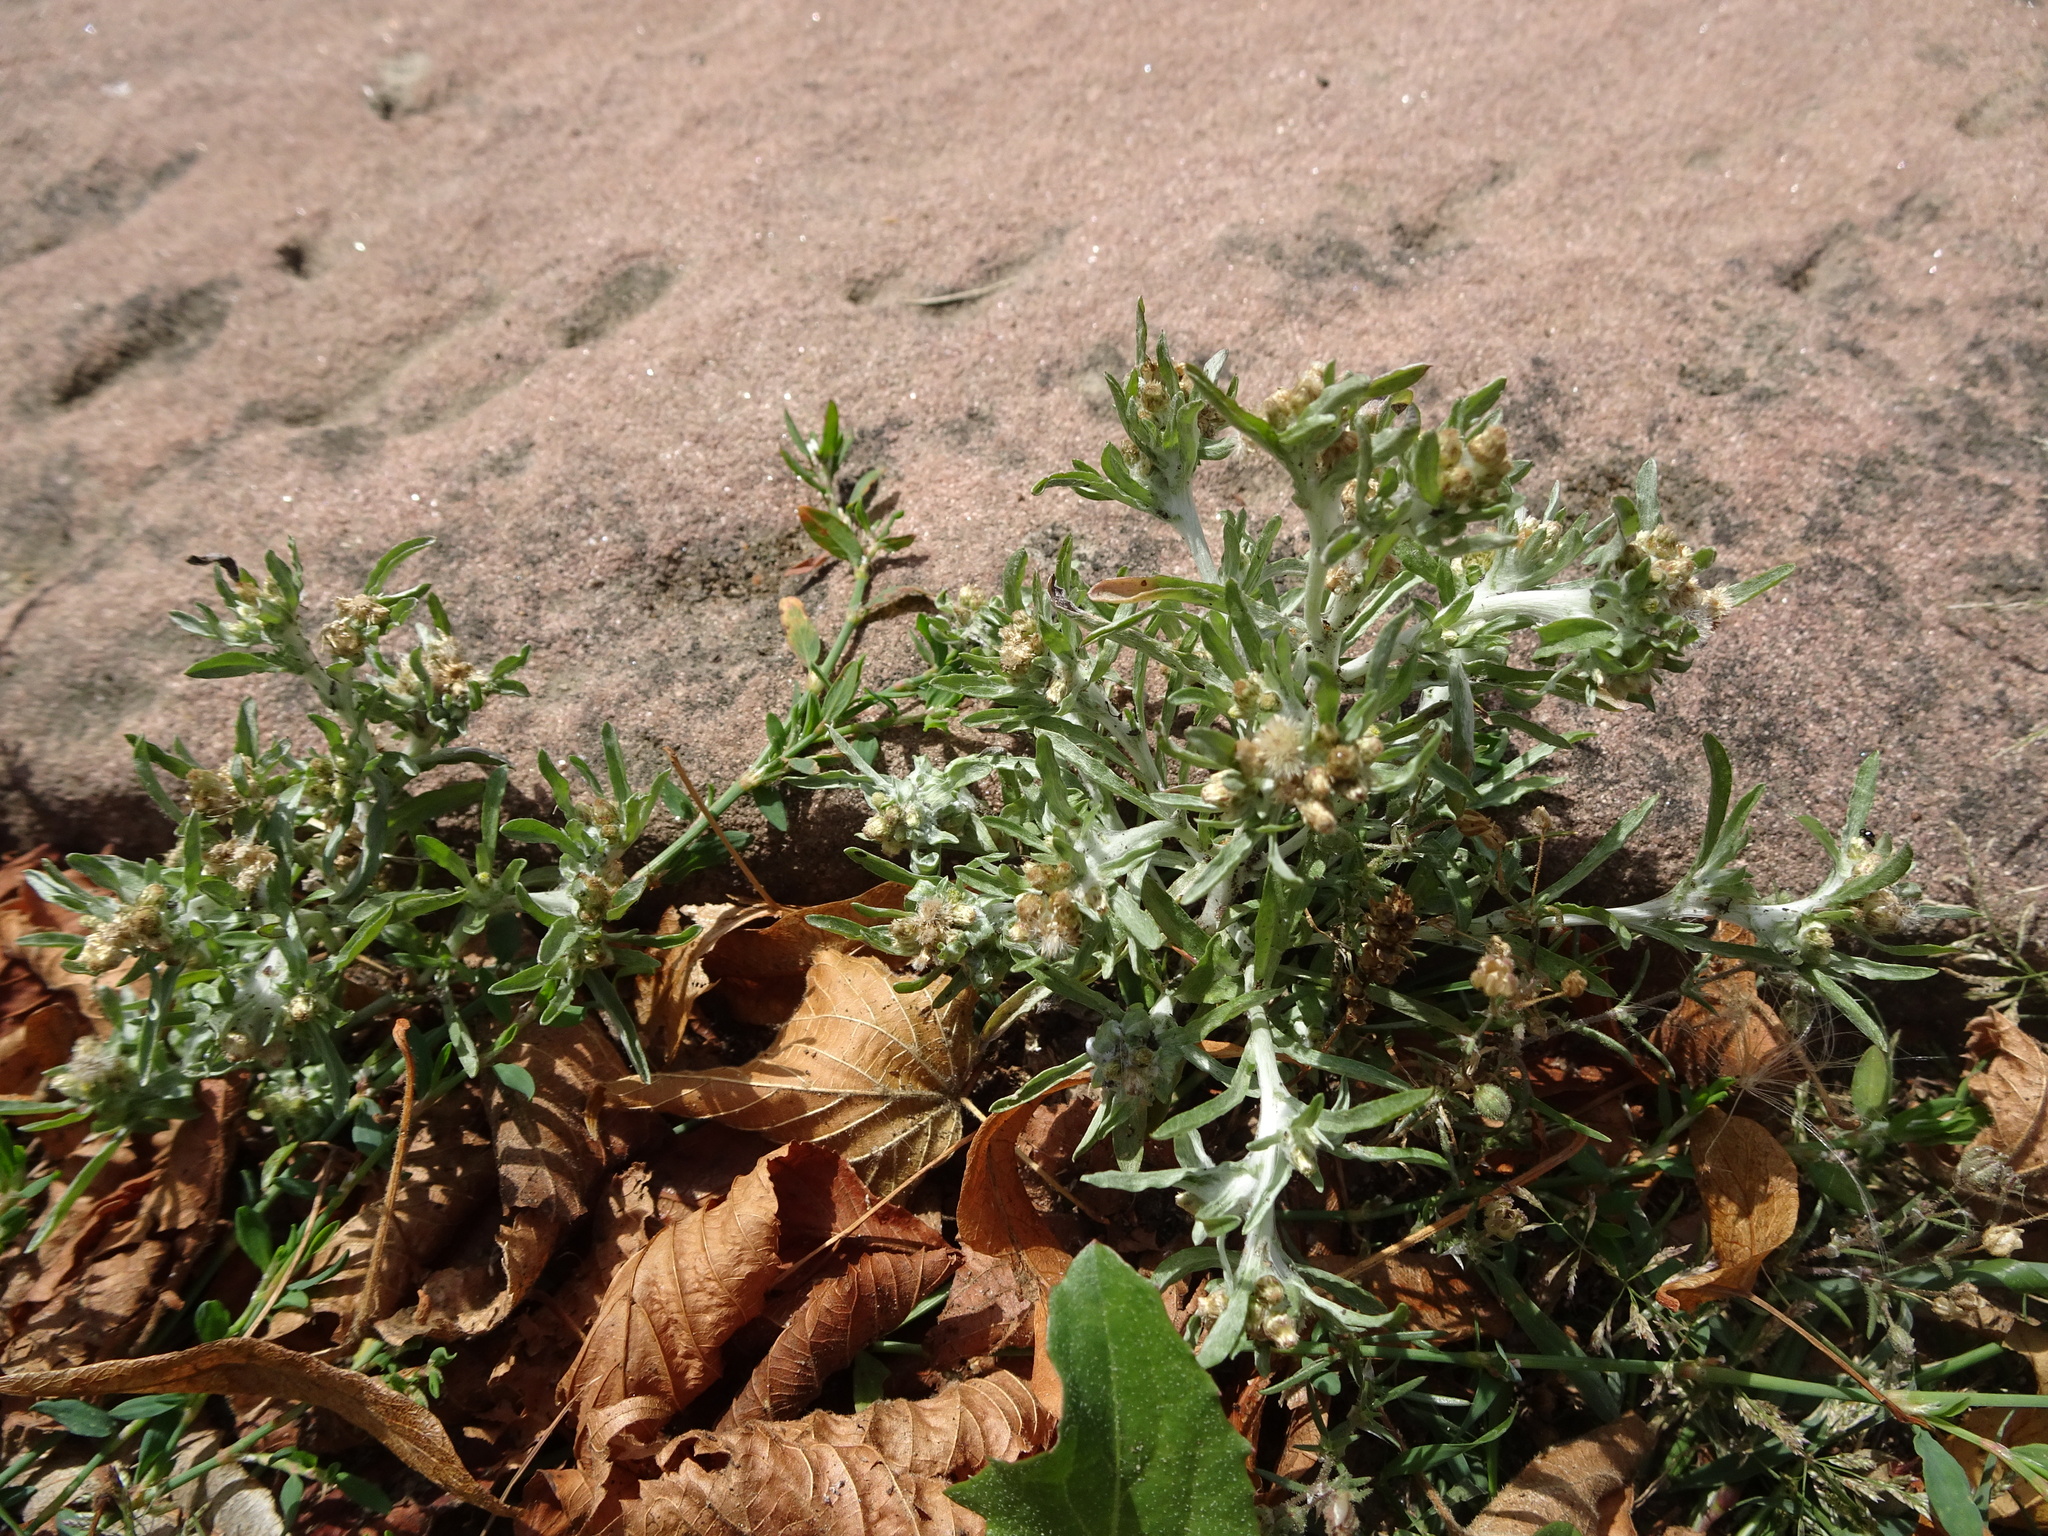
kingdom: Plantae
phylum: Tracheophyta
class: Magnoliopsida
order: Asterales
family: Asteraceae
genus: Gnaphalium
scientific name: Gnaphalium uliginosum
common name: Marsh cudweed
